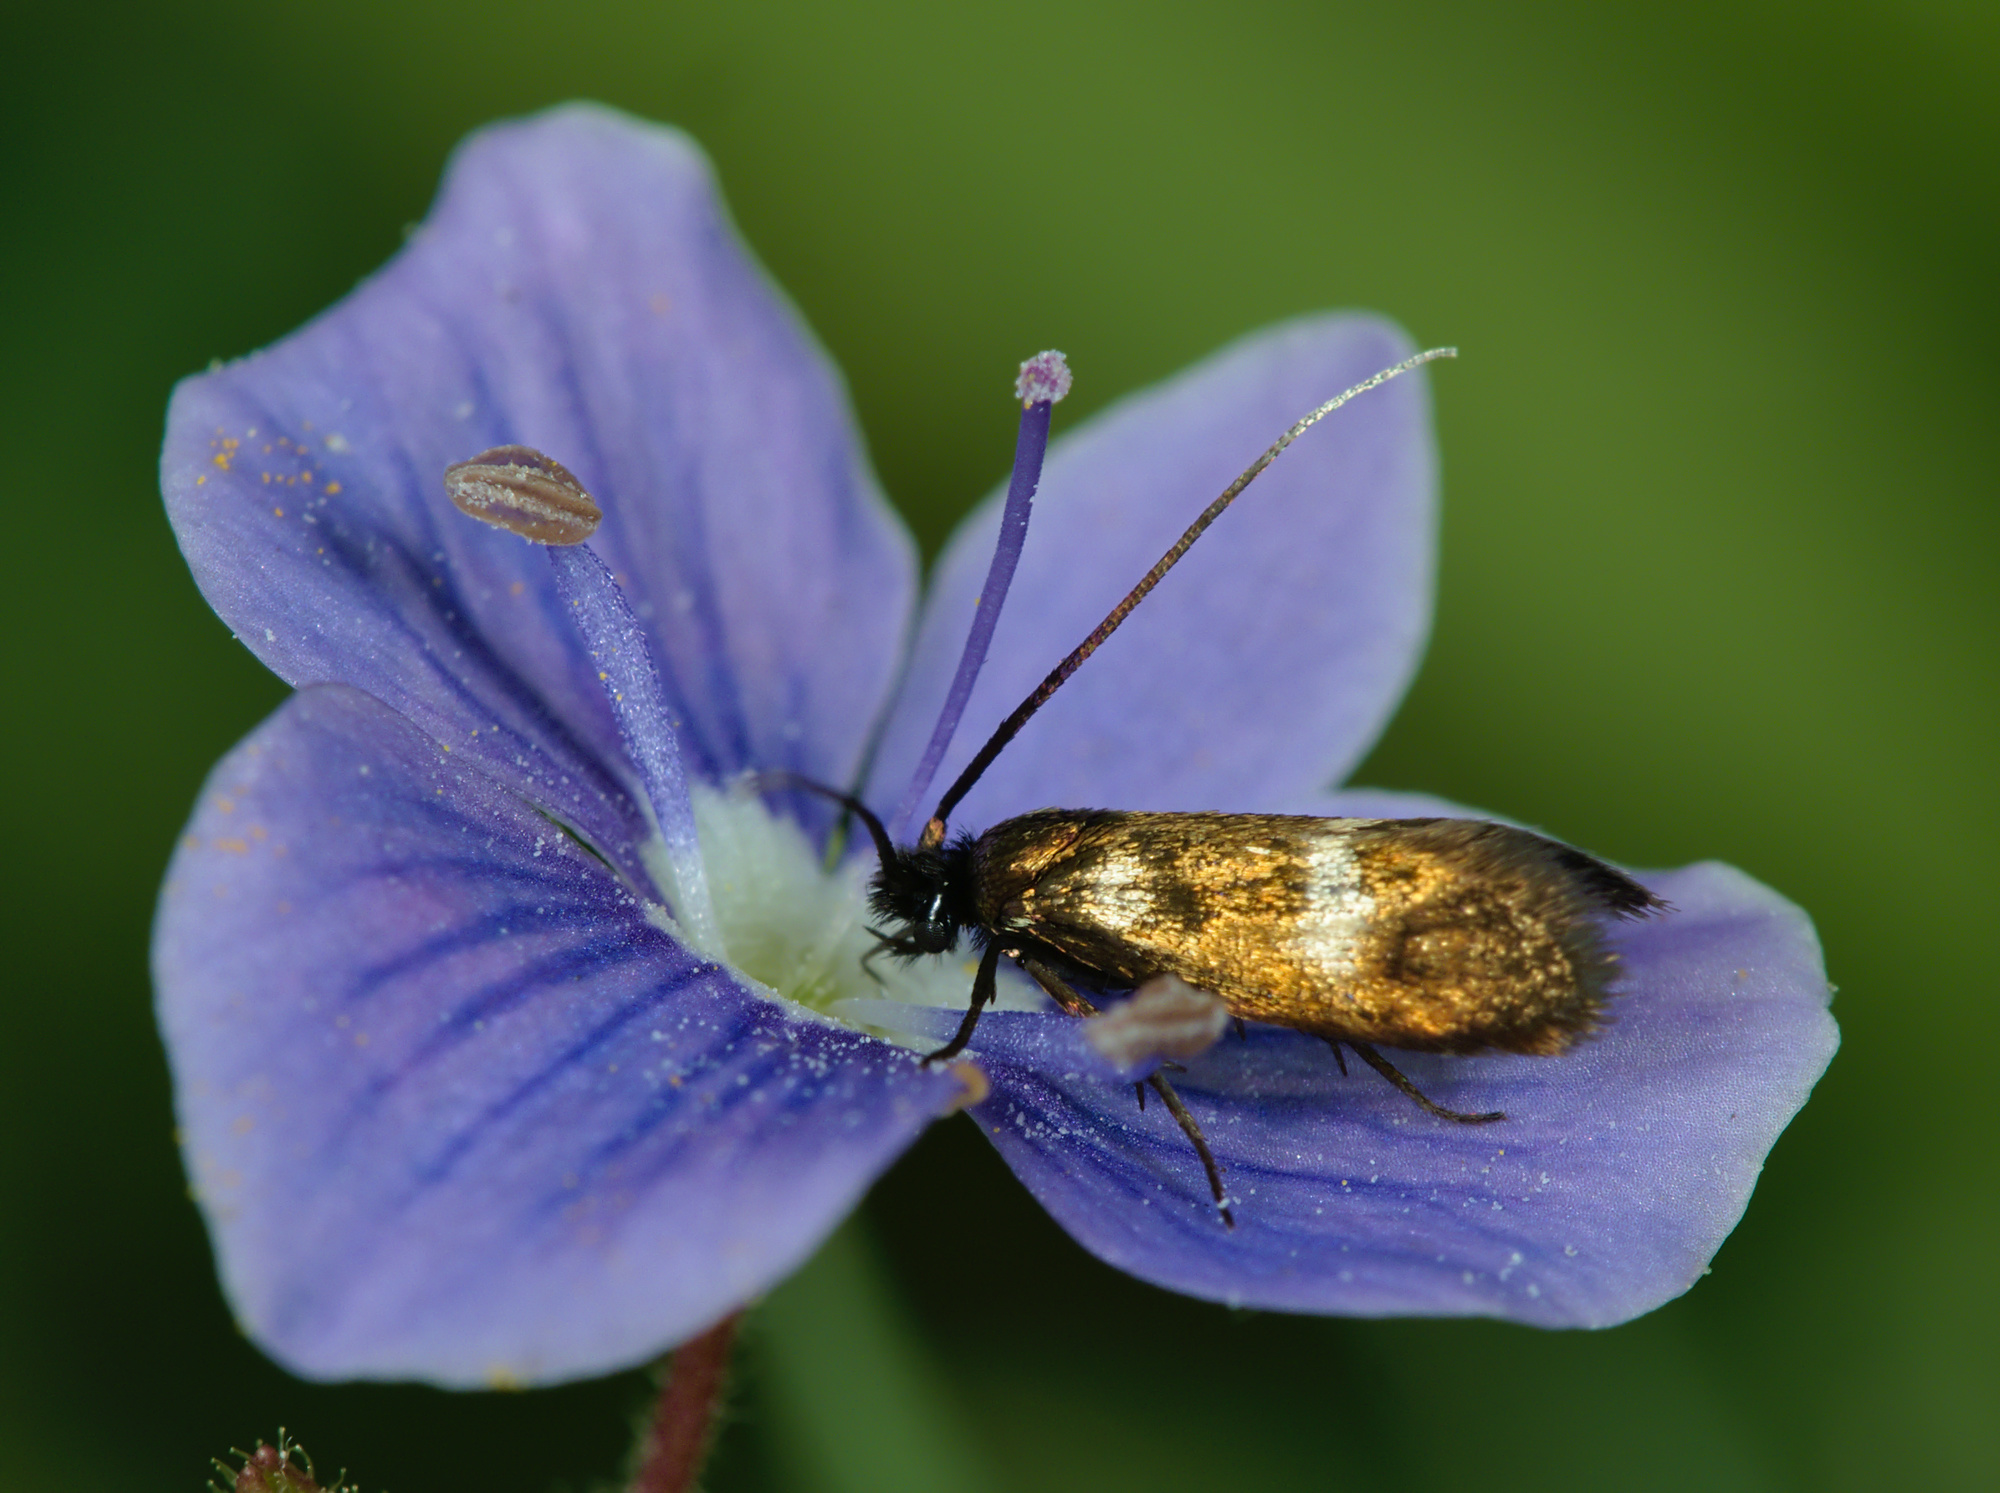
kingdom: Animalia
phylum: Arthropoda
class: Insecta
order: Lepidoptera
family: Adelidae
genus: Cauchas
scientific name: Cauchas fibulella
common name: Little long-horn
